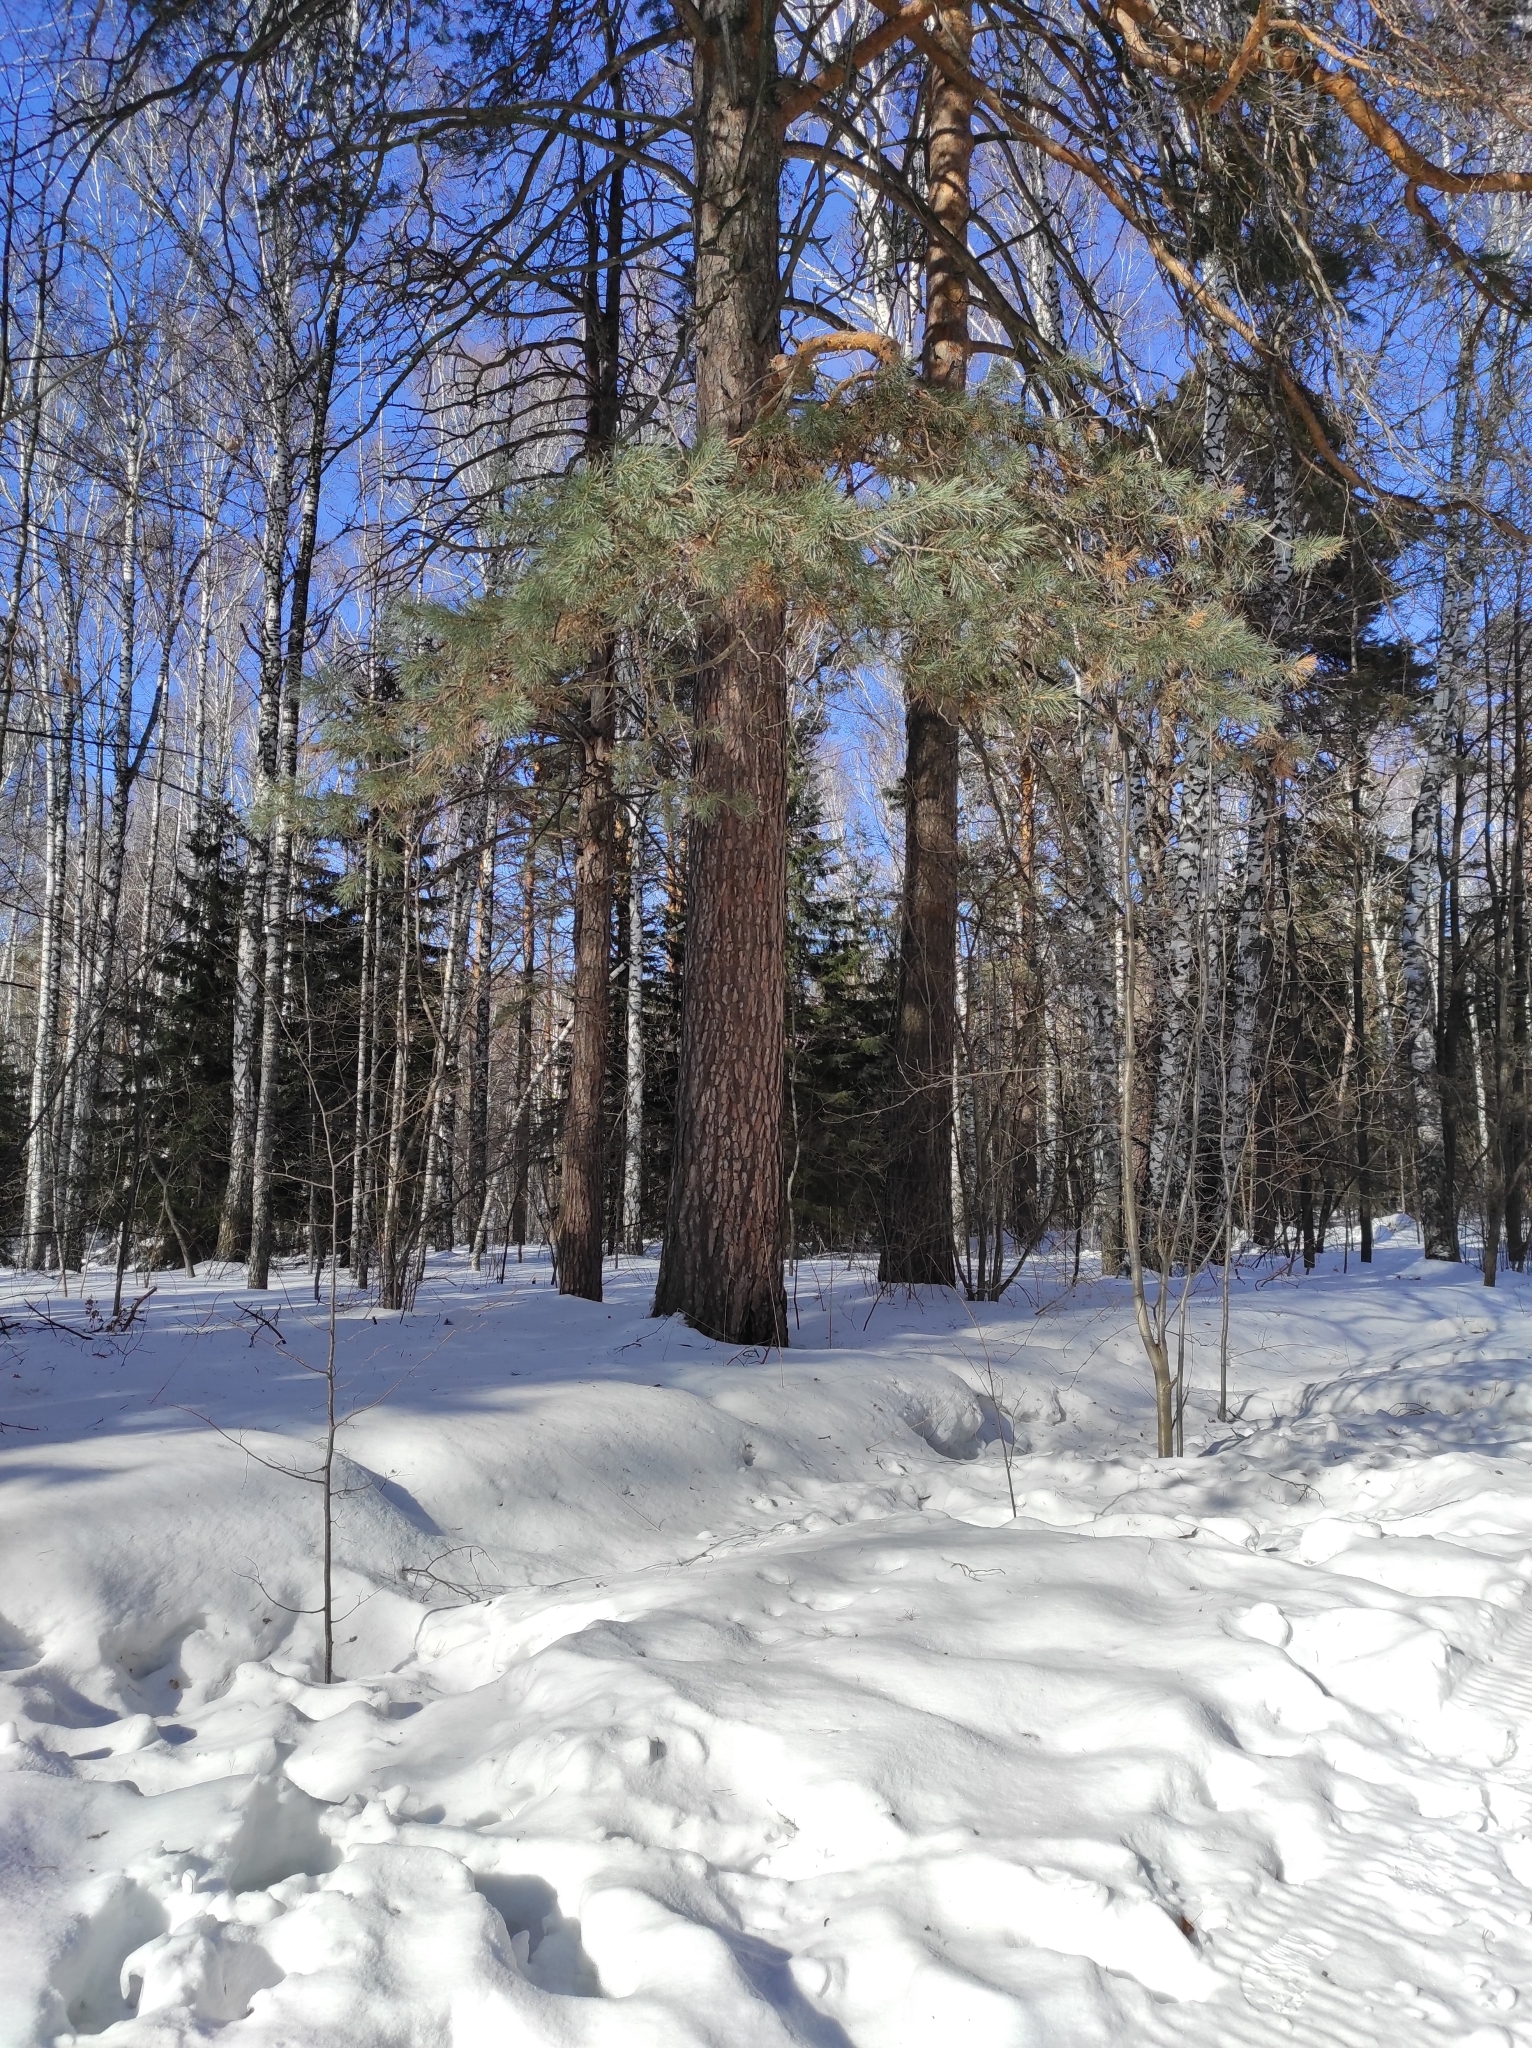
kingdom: Plantae
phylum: Tracheophyta
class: Pinopsida
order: Pinales
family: Pinaceae
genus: Pinus
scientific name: Pinus sylvestris
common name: Scots pine
